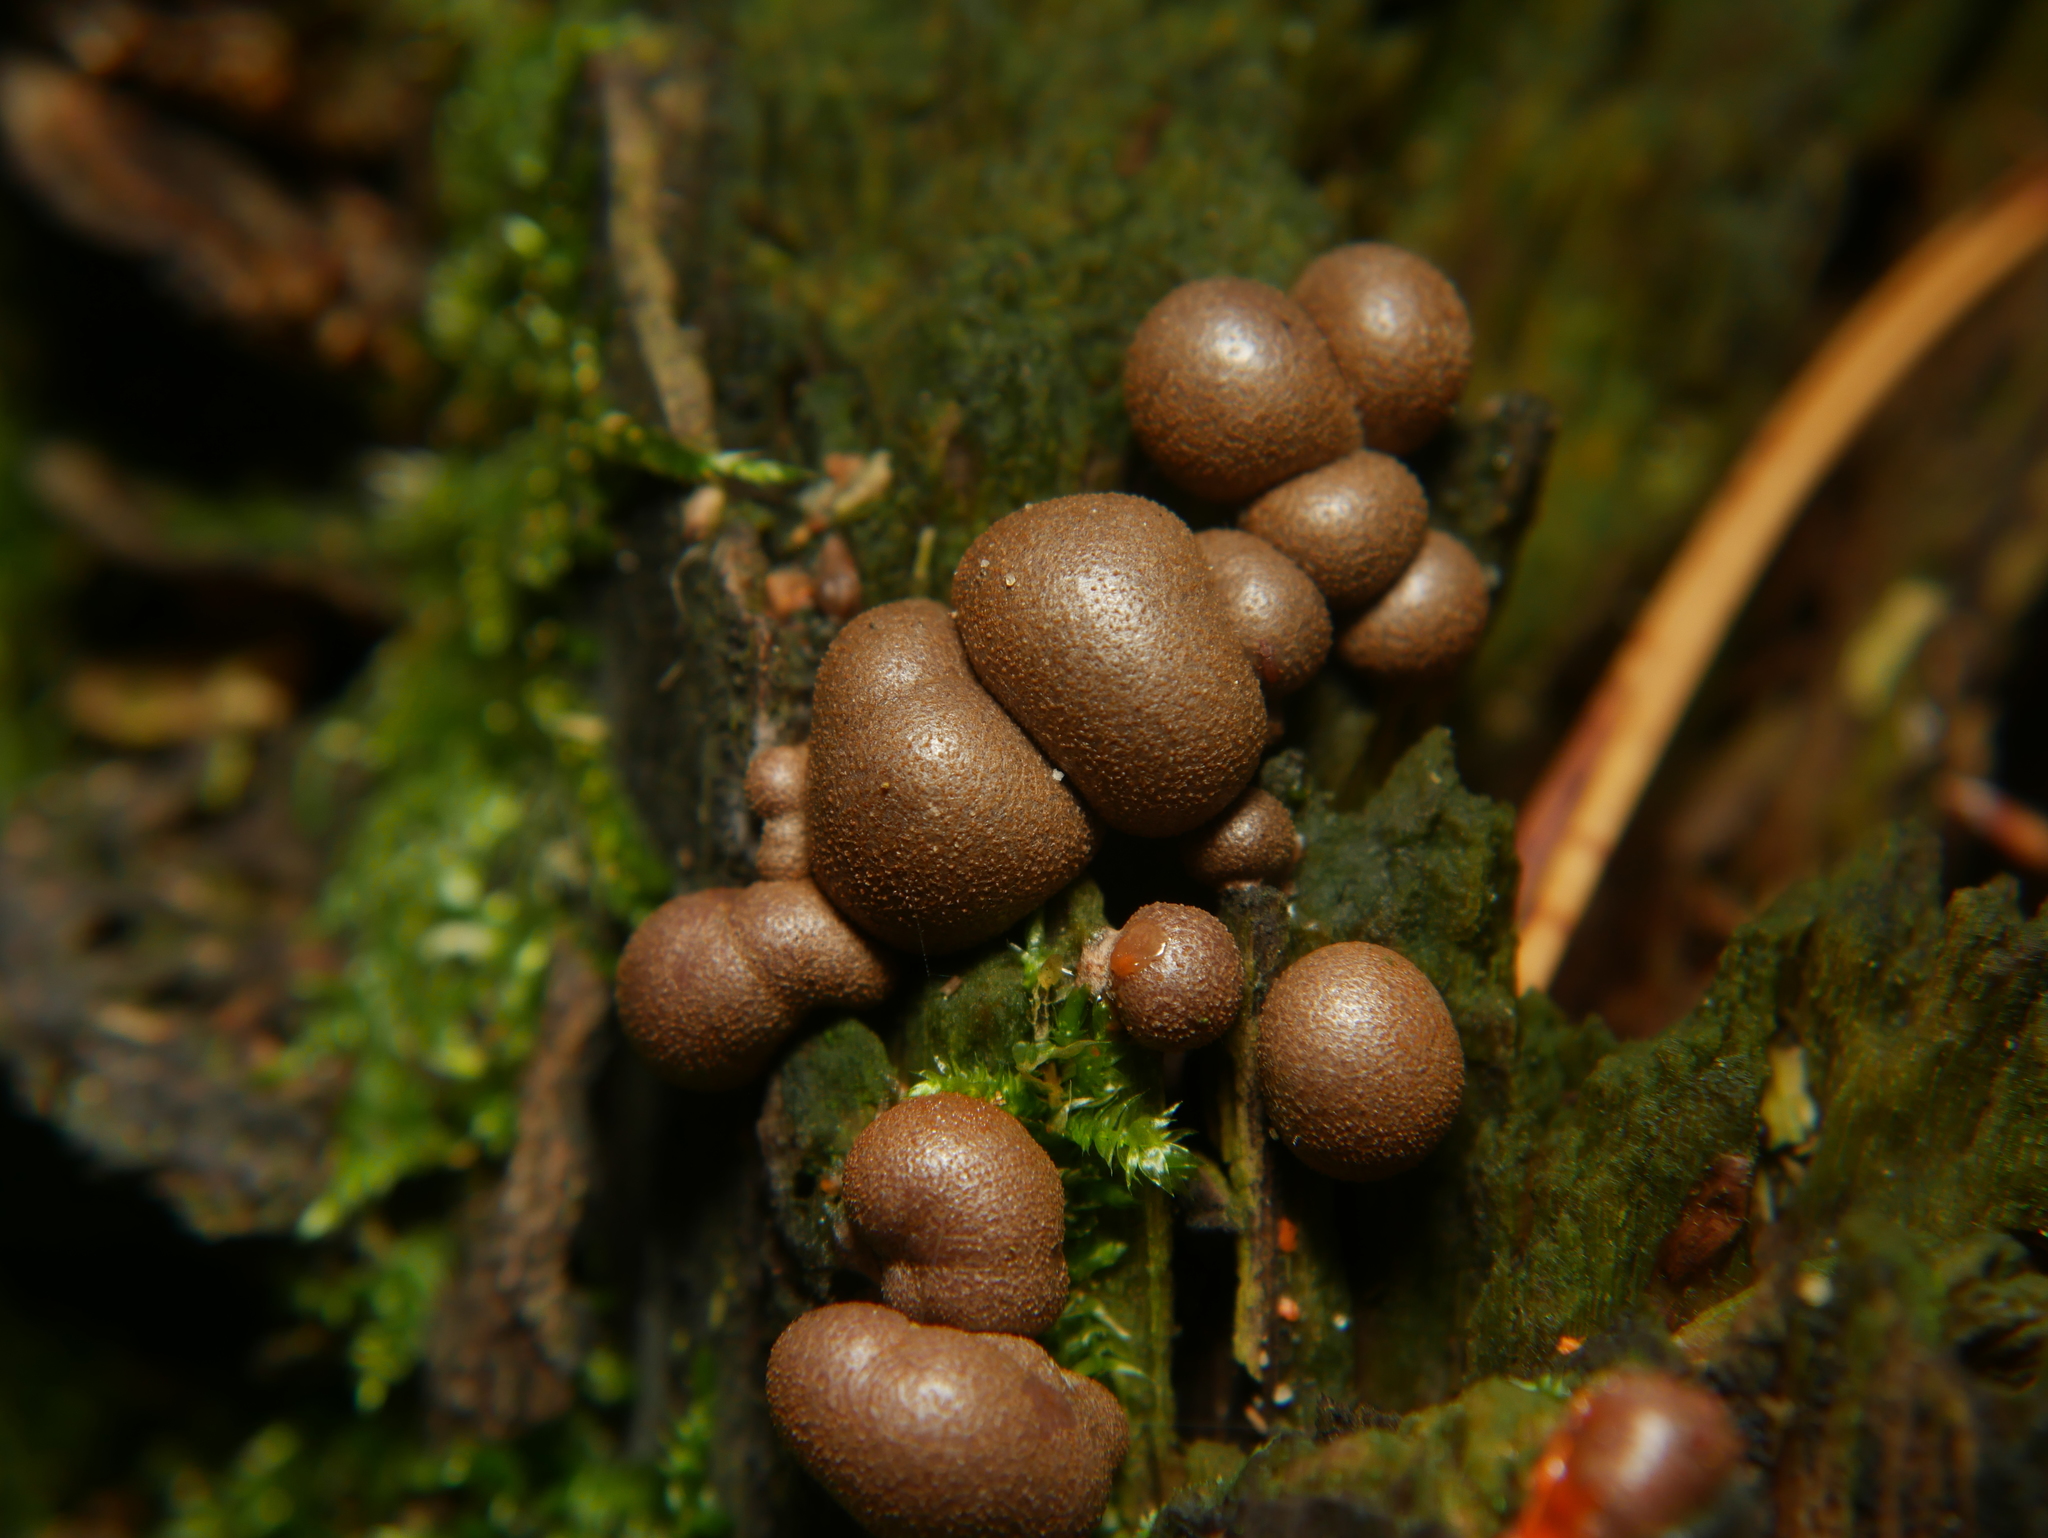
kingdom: Protozoa
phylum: Mycetozoa
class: Myxomycetes
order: Cribrariales
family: Tubiferaceae
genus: Lycogala
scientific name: Lycogala epidendrum
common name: Wolf's milk
